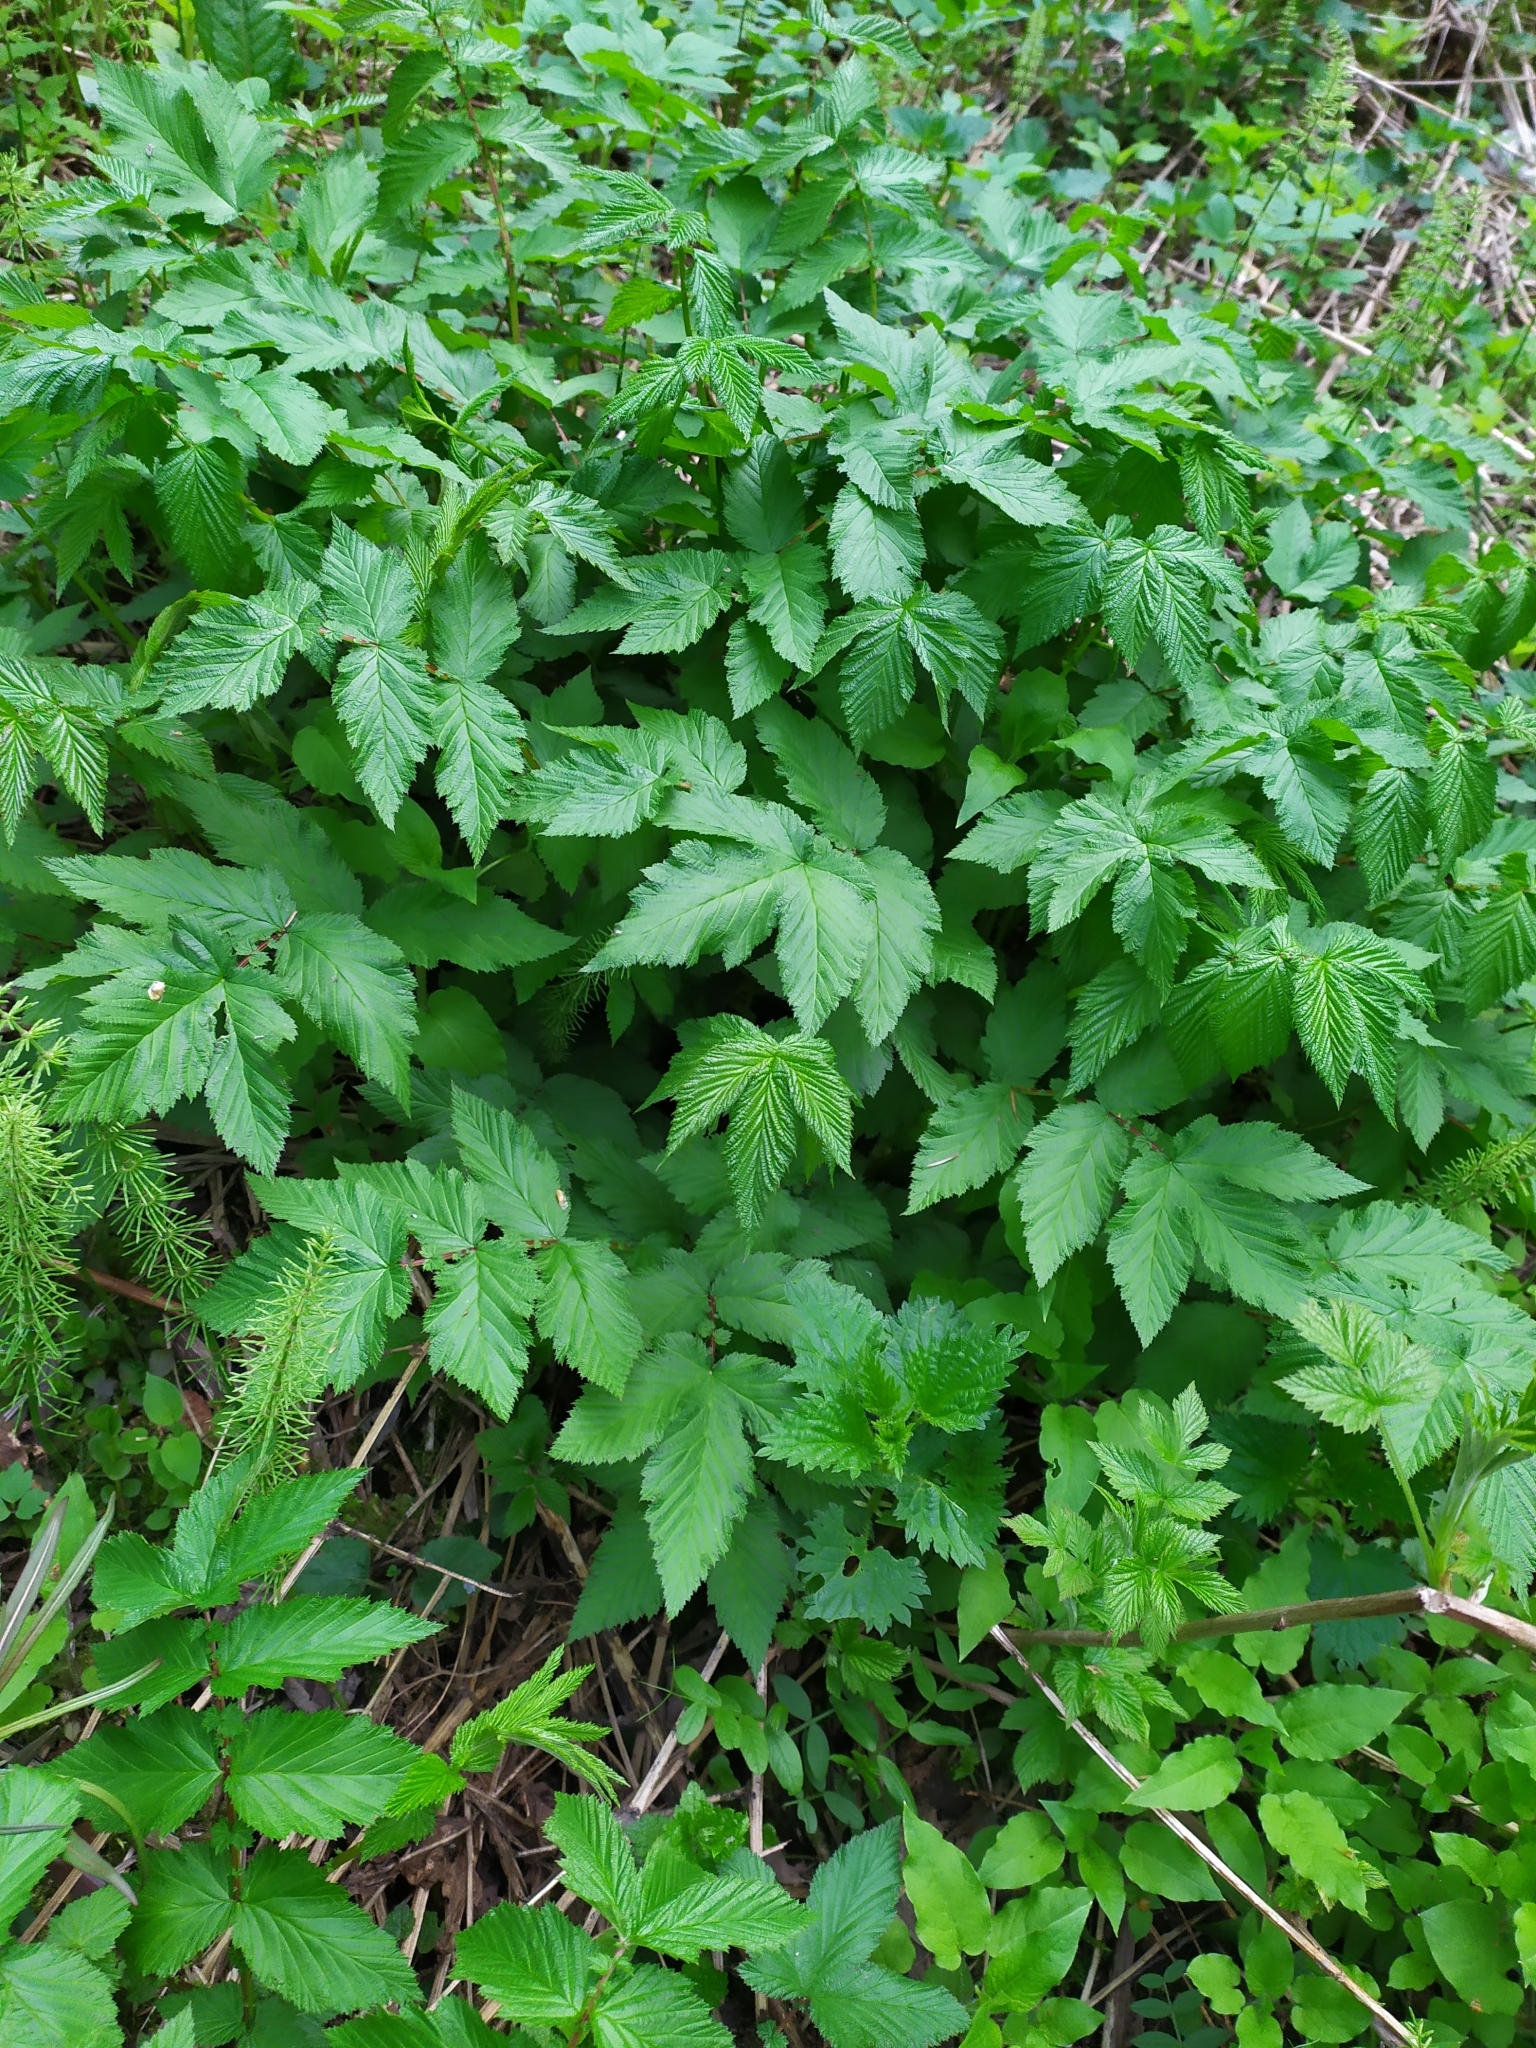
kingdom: Plantae
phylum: Tracheophyta
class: Magnoliopsida
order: Rosales
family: Rosaceae
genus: Filipendula
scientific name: Filipendula ulmaria
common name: Meadowsweet
